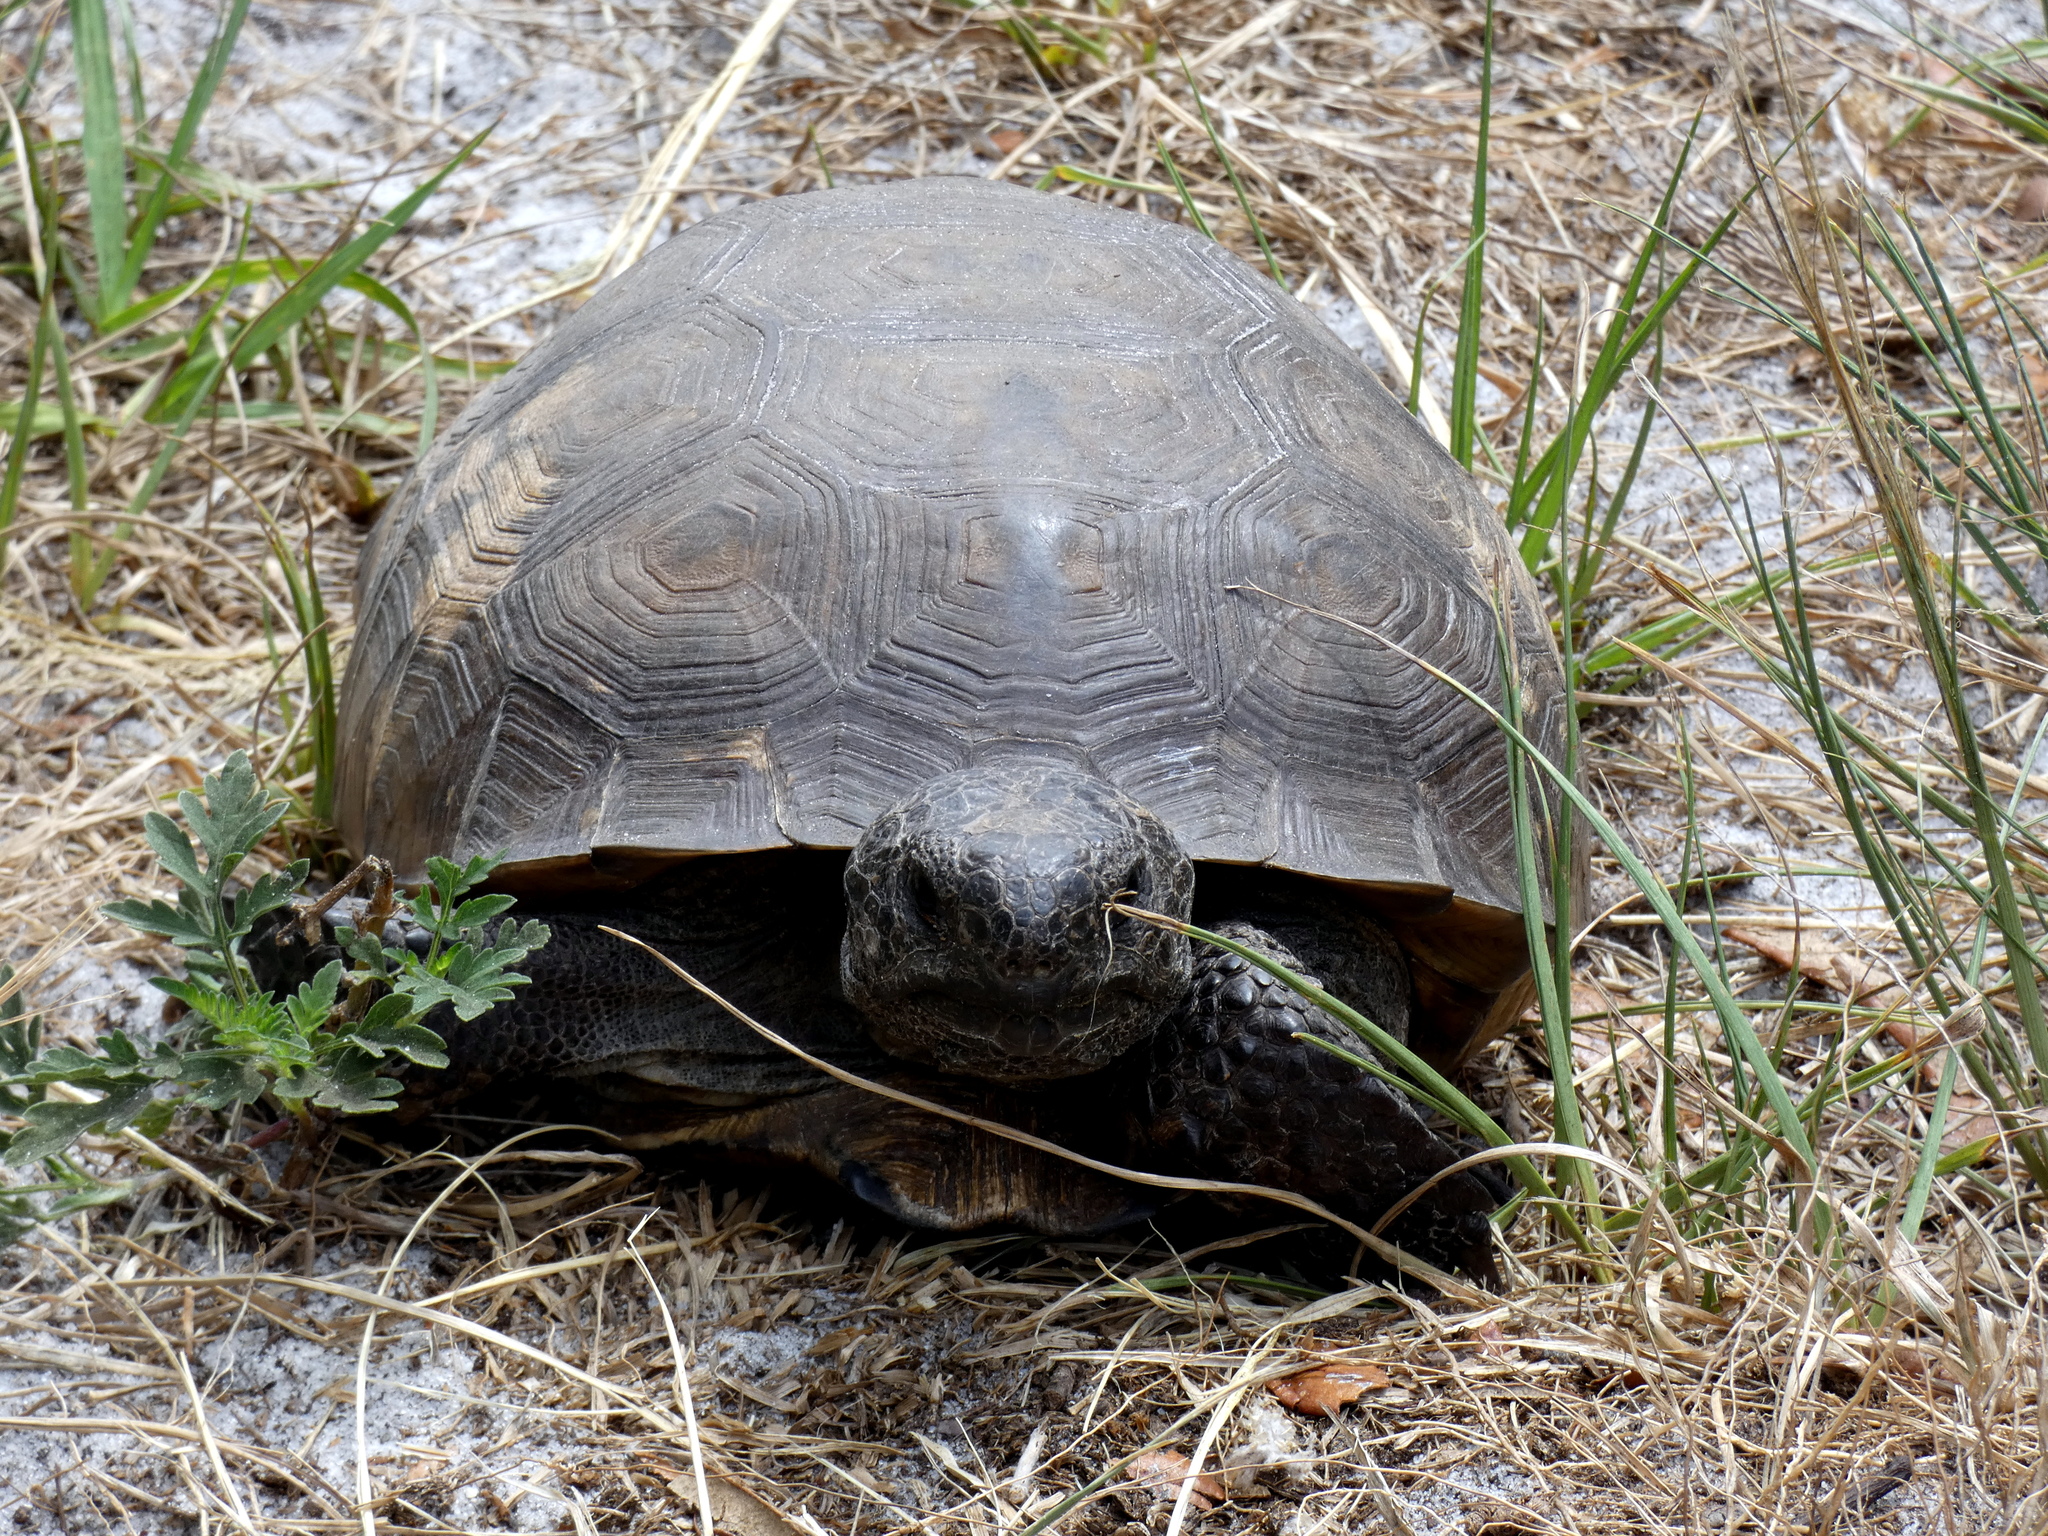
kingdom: Animalia
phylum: Chordata
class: Testudines
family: Testudinidae
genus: Gopherus
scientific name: Gopherus polyphemus
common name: Florida gopher tortoise
